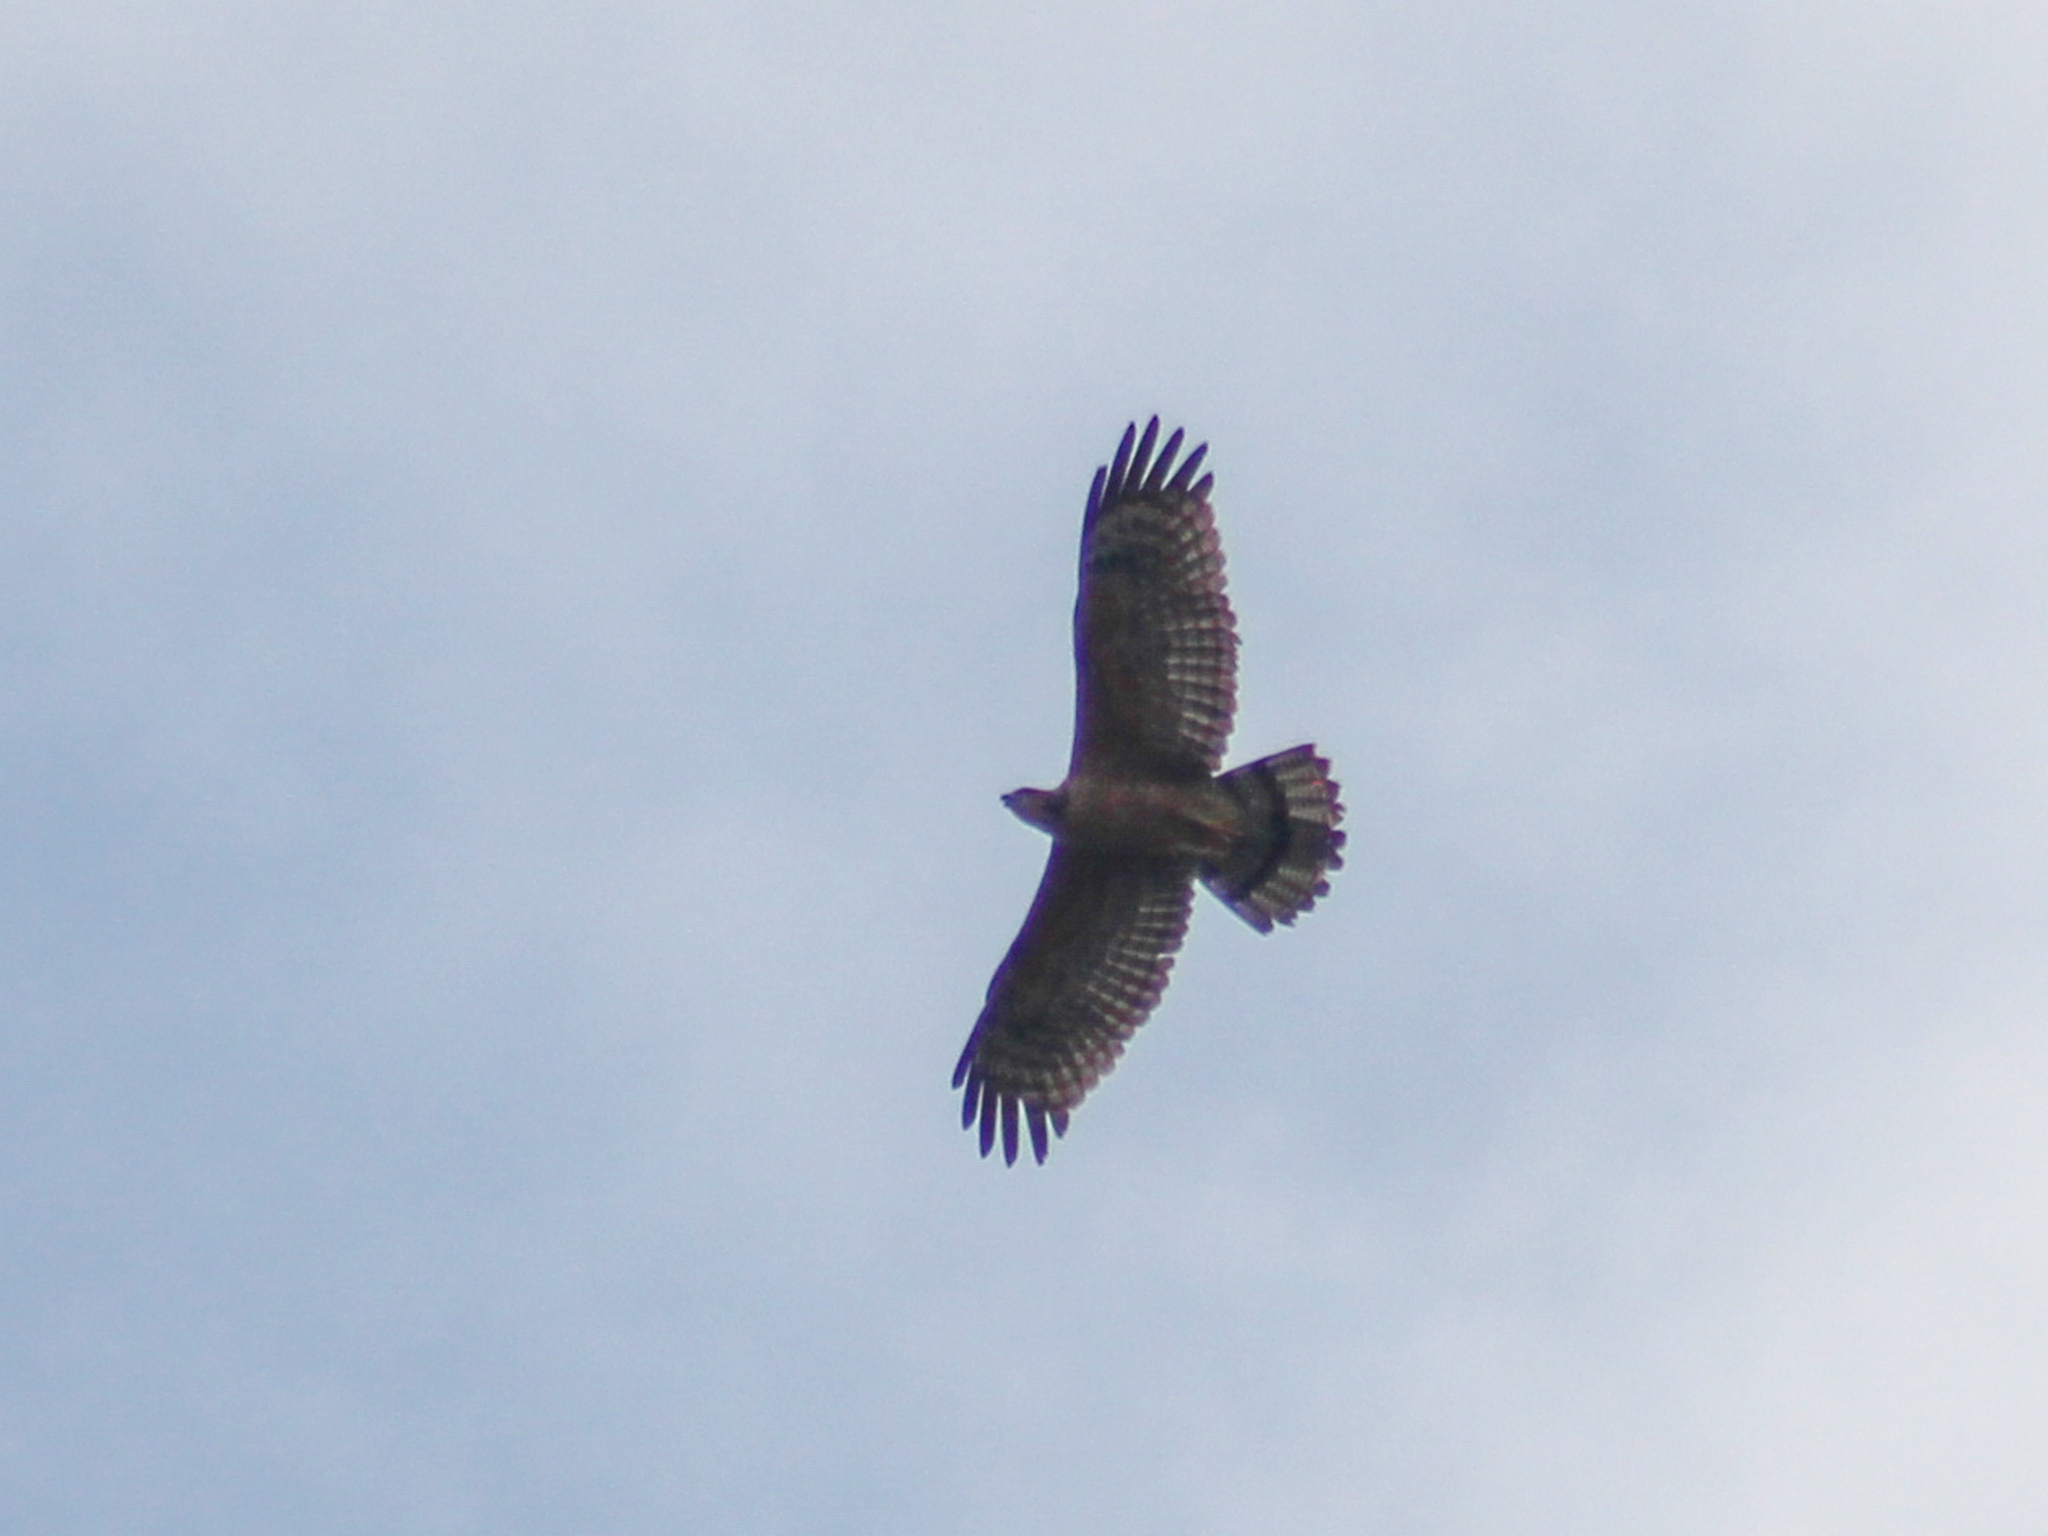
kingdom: Animalia
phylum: Chordata
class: Aves
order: Accipitriformes
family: Accipitridae
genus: Pernis
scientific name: Pernis ptilorhynchus
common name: Crested honey buzzard
